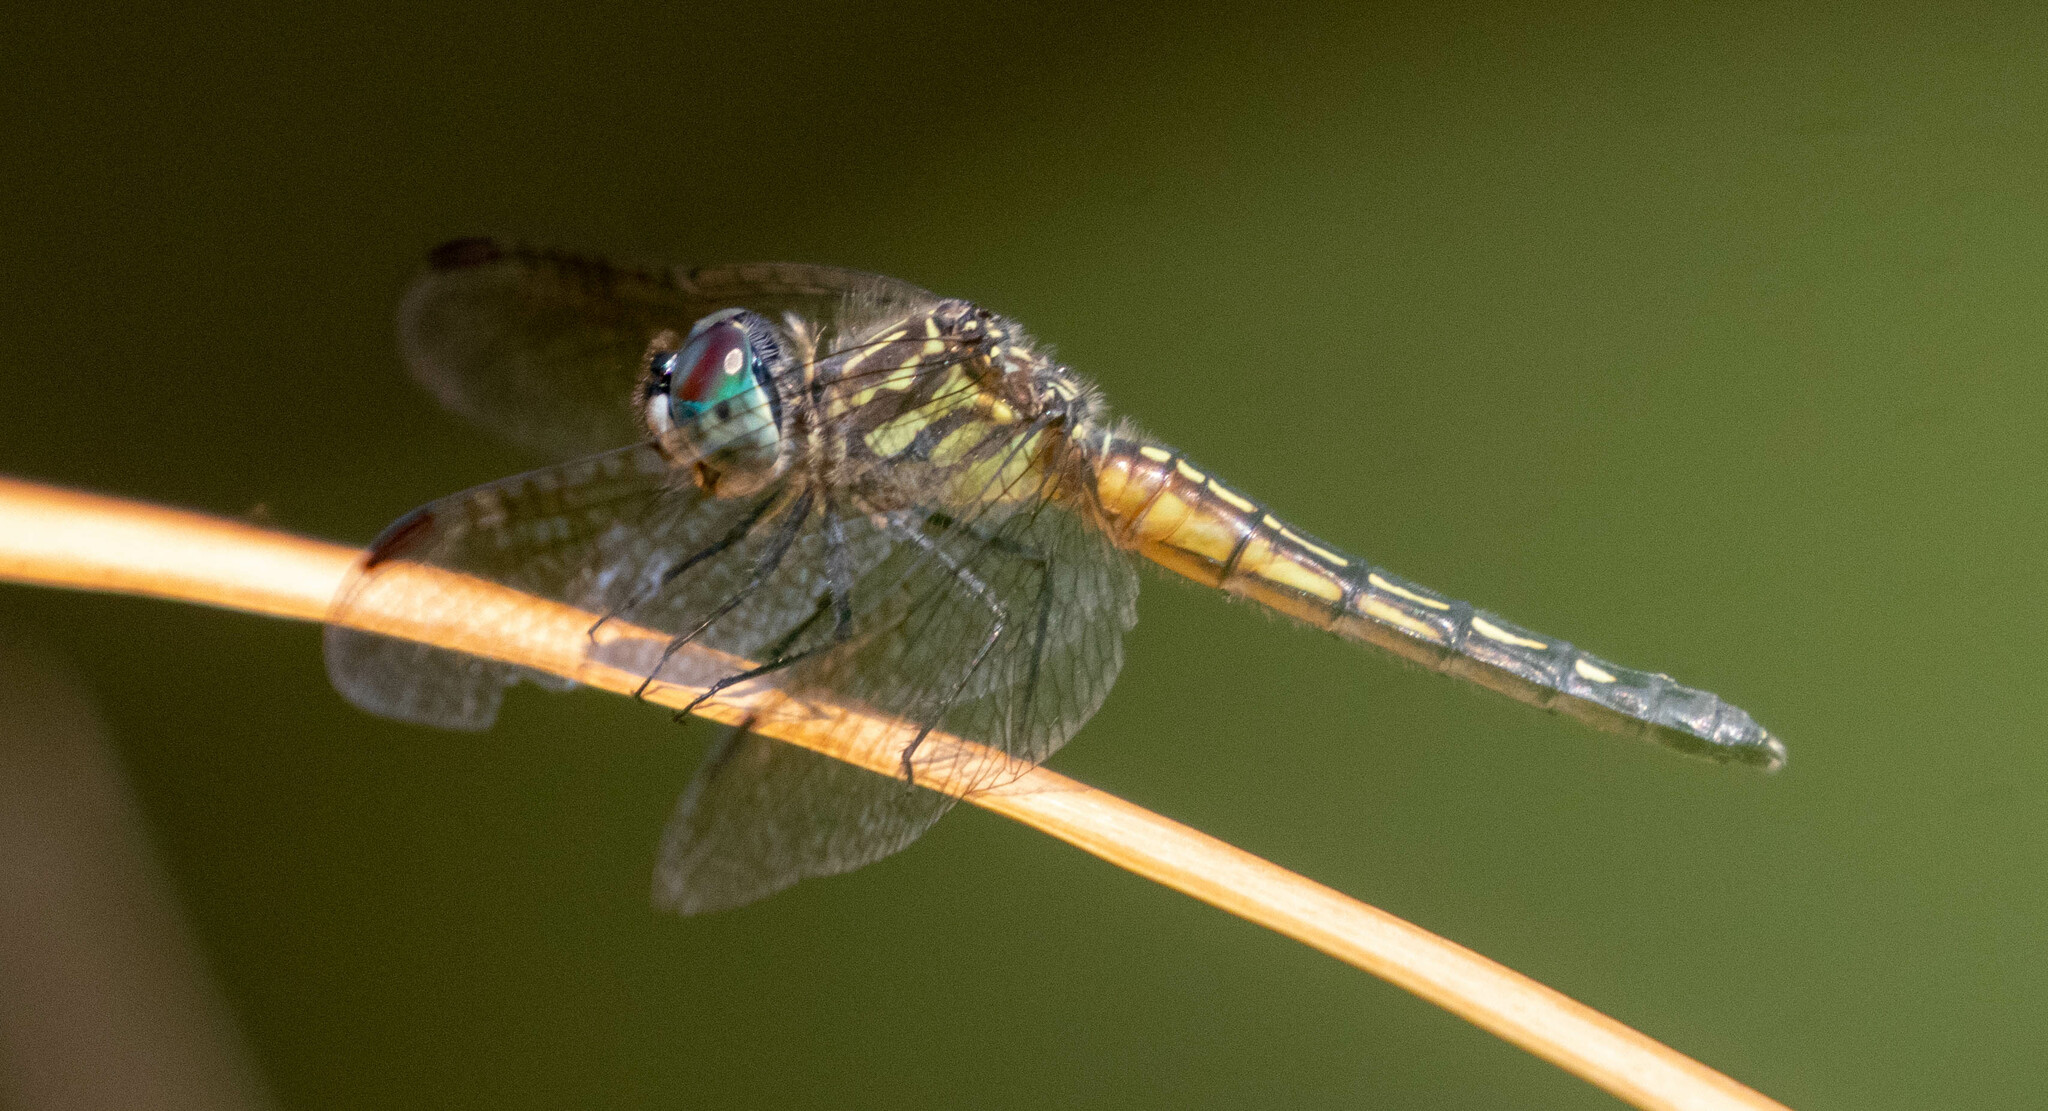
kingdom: Animalia
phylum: Arthropoda
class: Insecta
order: Odonata
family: Libellulidae
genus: Pachydiplax
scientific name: Pachydiplax longipennis
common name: Blue dasher
